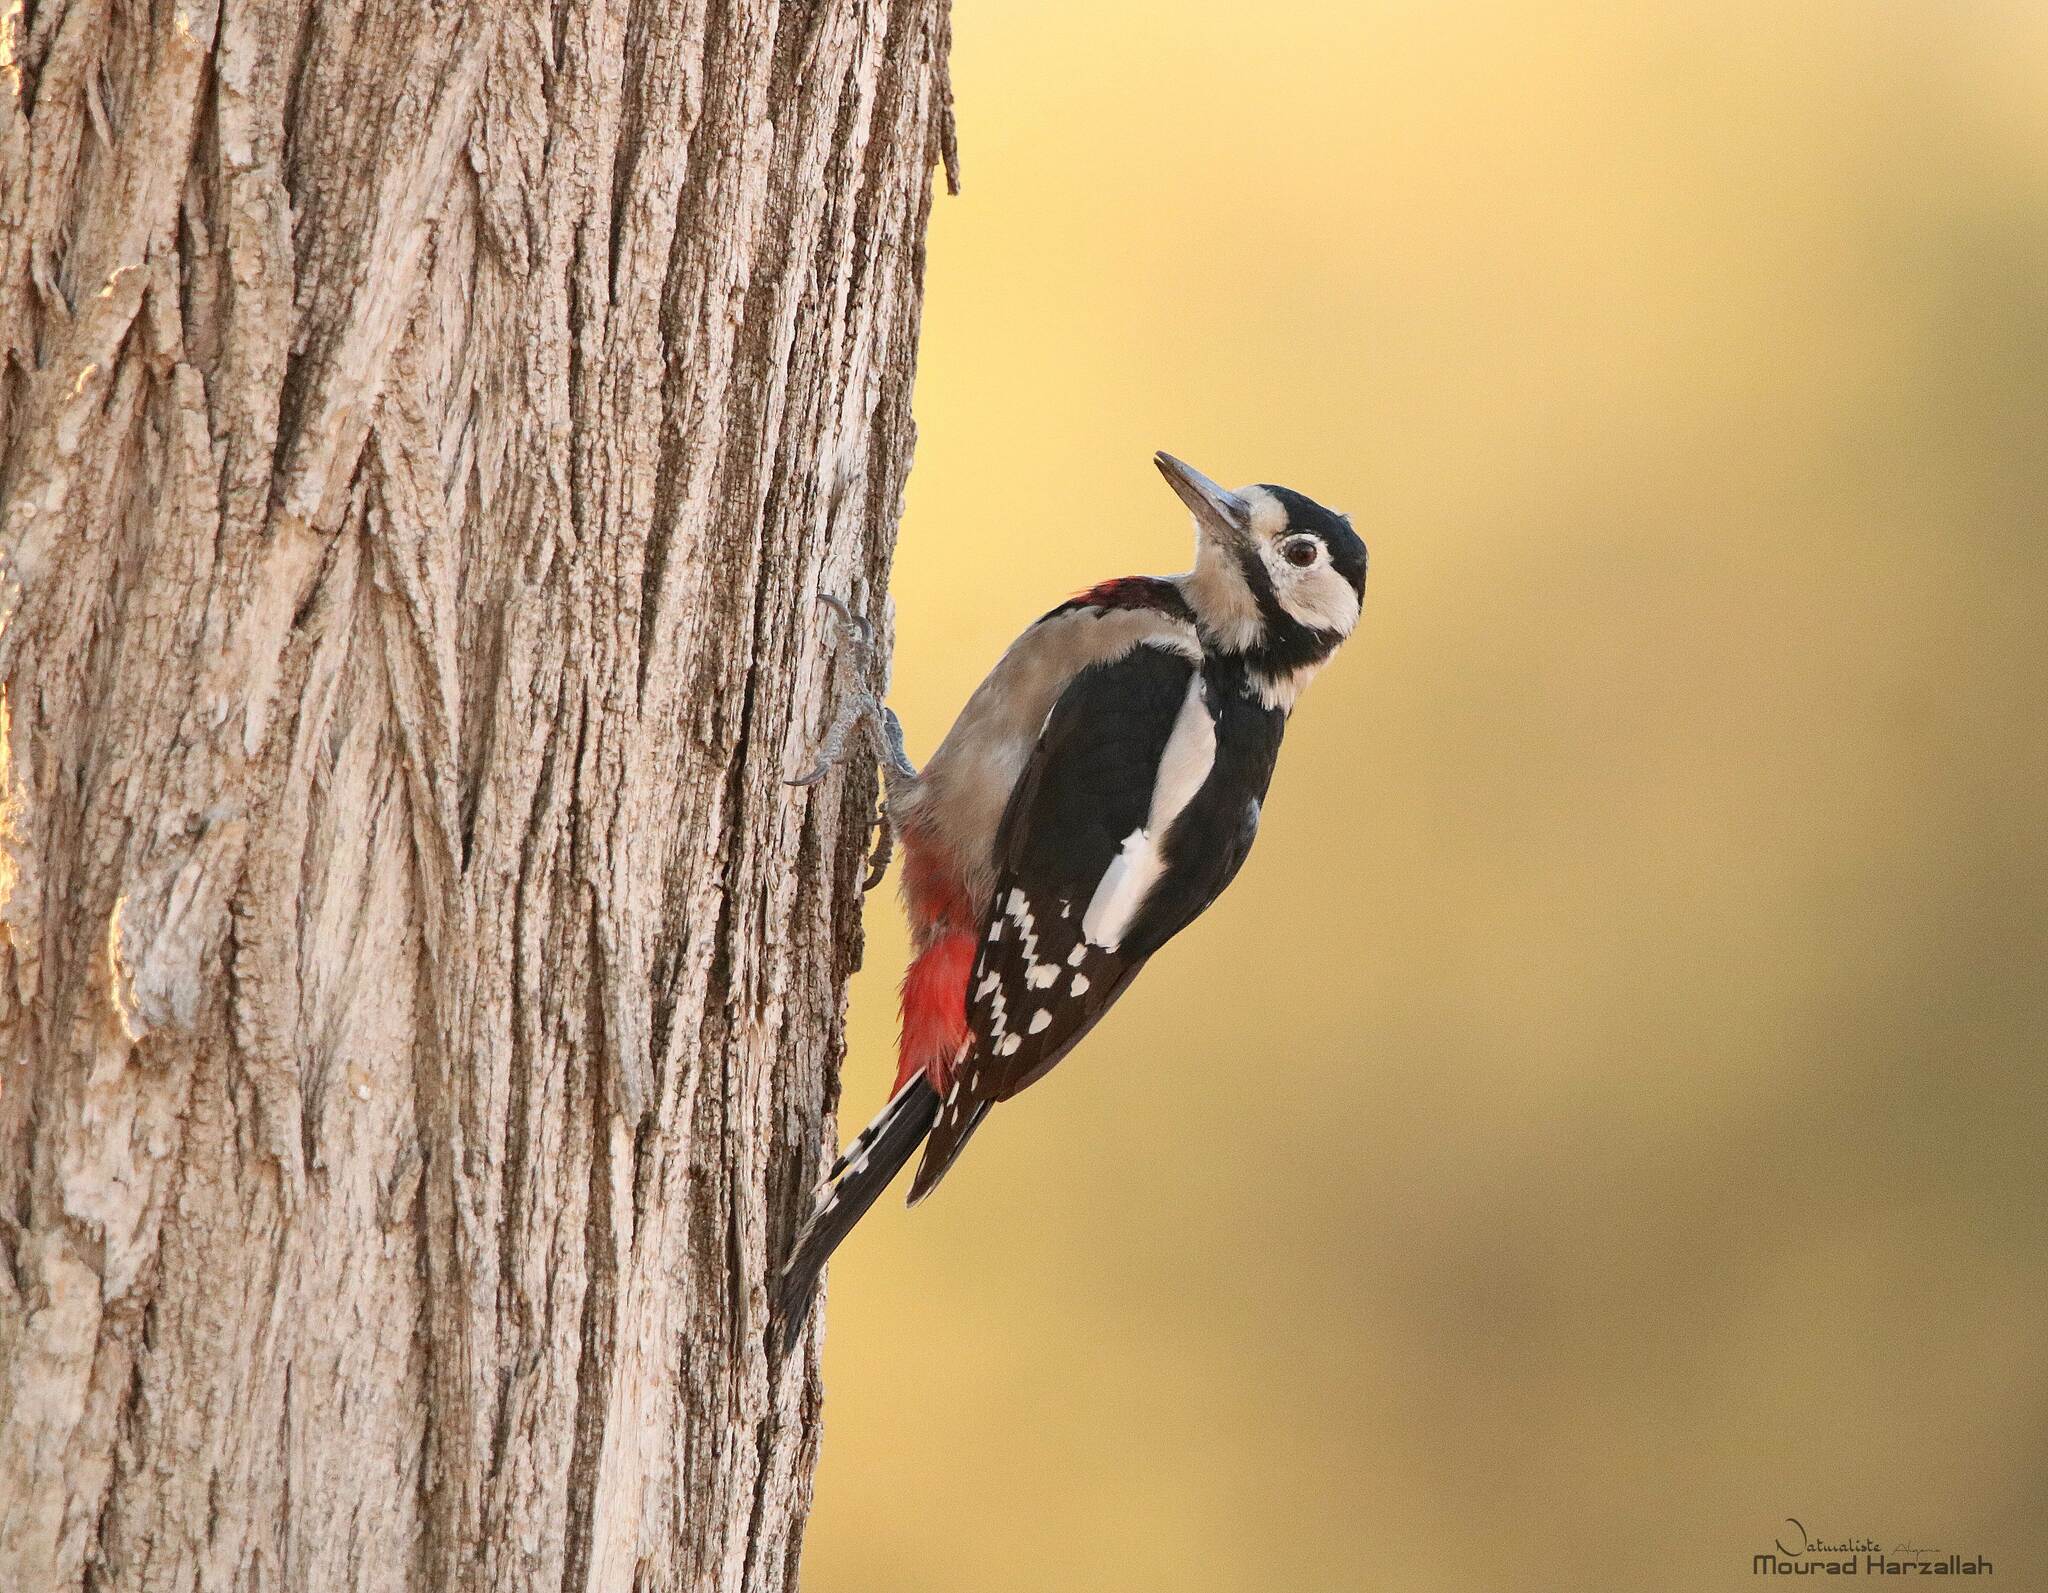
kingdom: Animalia
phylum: Chordata
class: Aves
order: Piciformes
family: Picidae
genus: Dendrocopos
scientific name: Dendrocopos major
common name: Great spotted woodpecker
